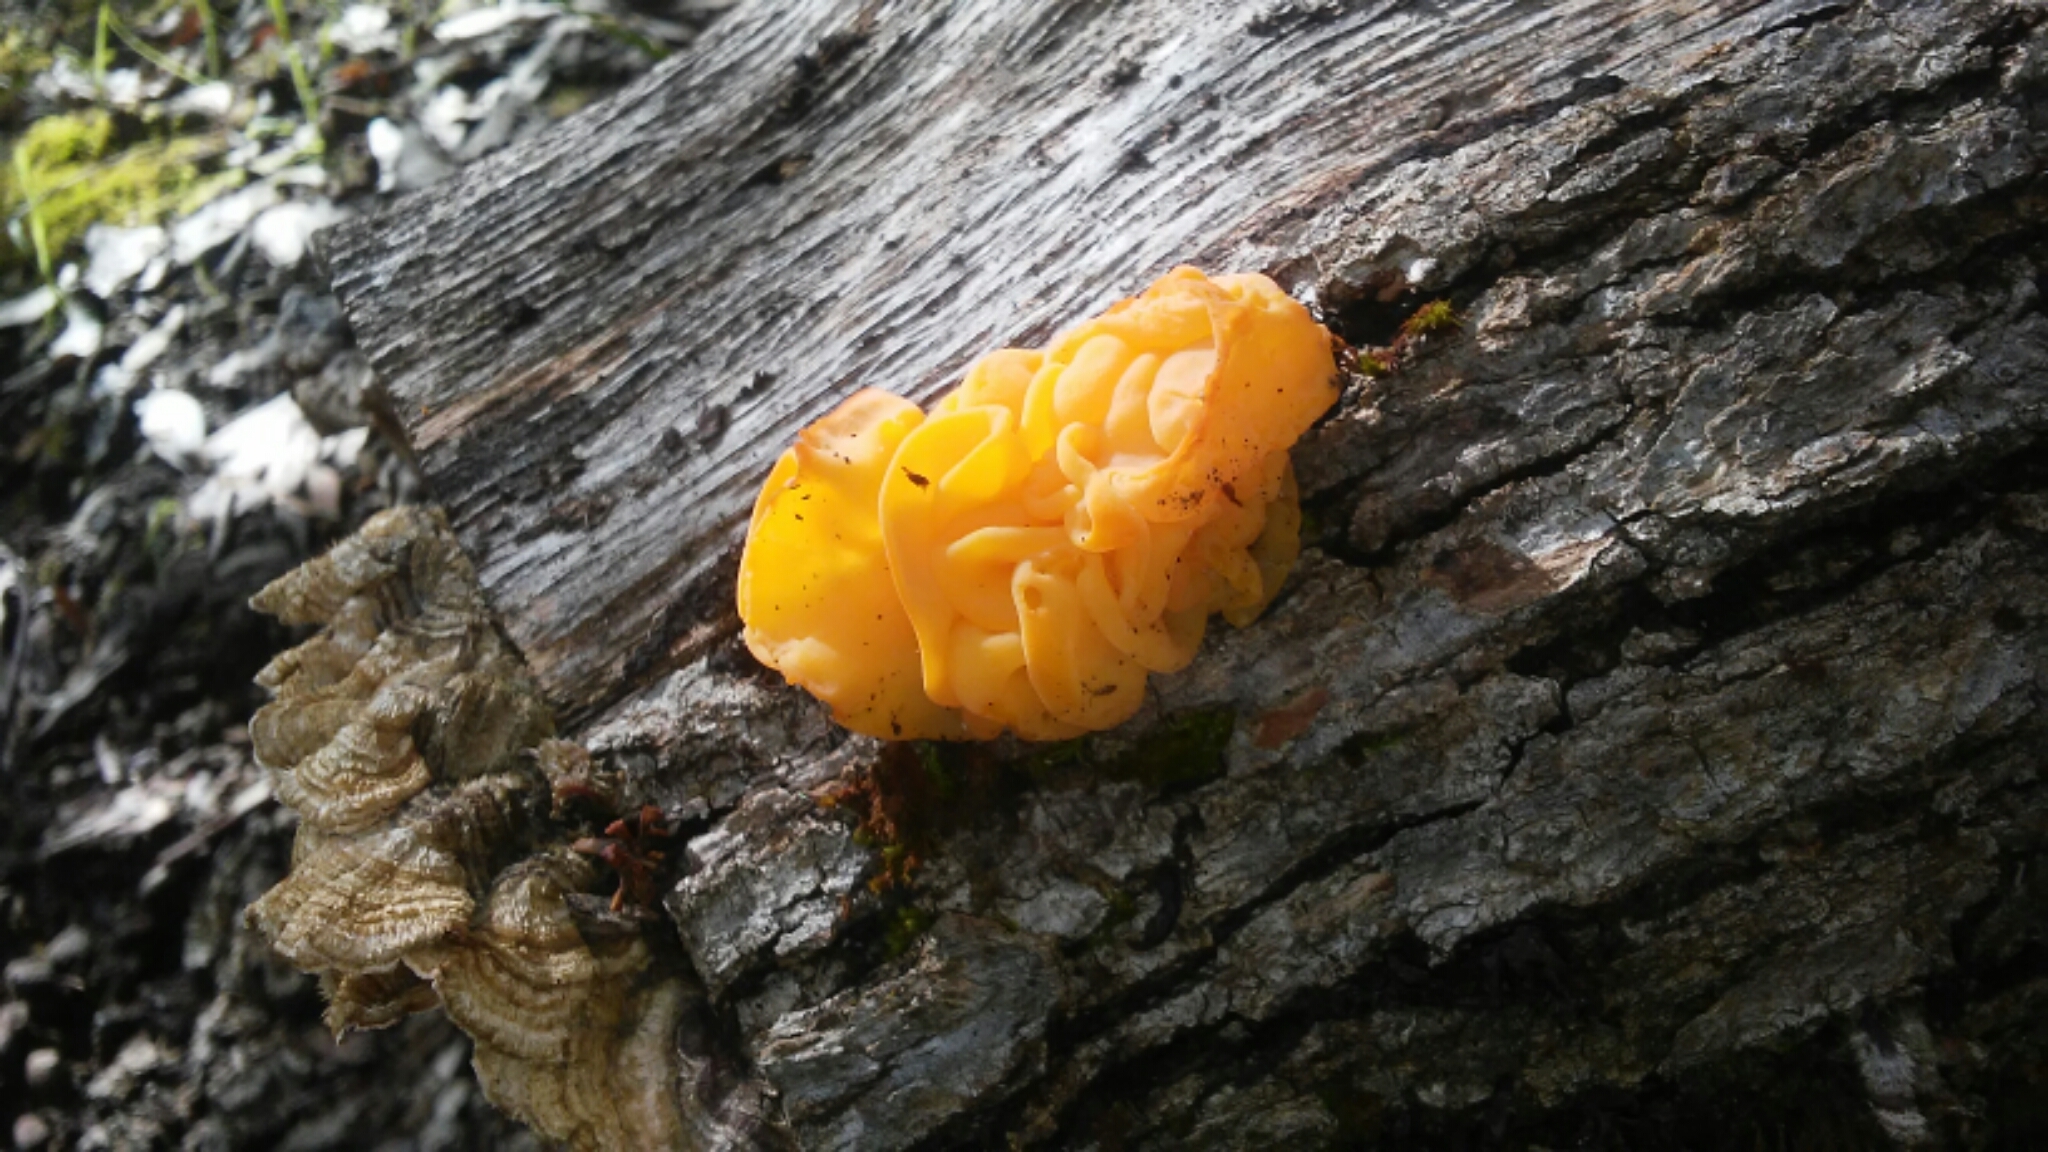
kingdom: Fungi
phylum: Basidiomycota
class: Tremellomycetes
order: Tremellales
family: Naemateliaceae
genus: Naematelia
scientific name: Naematelia aurantia
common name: Golden ear
